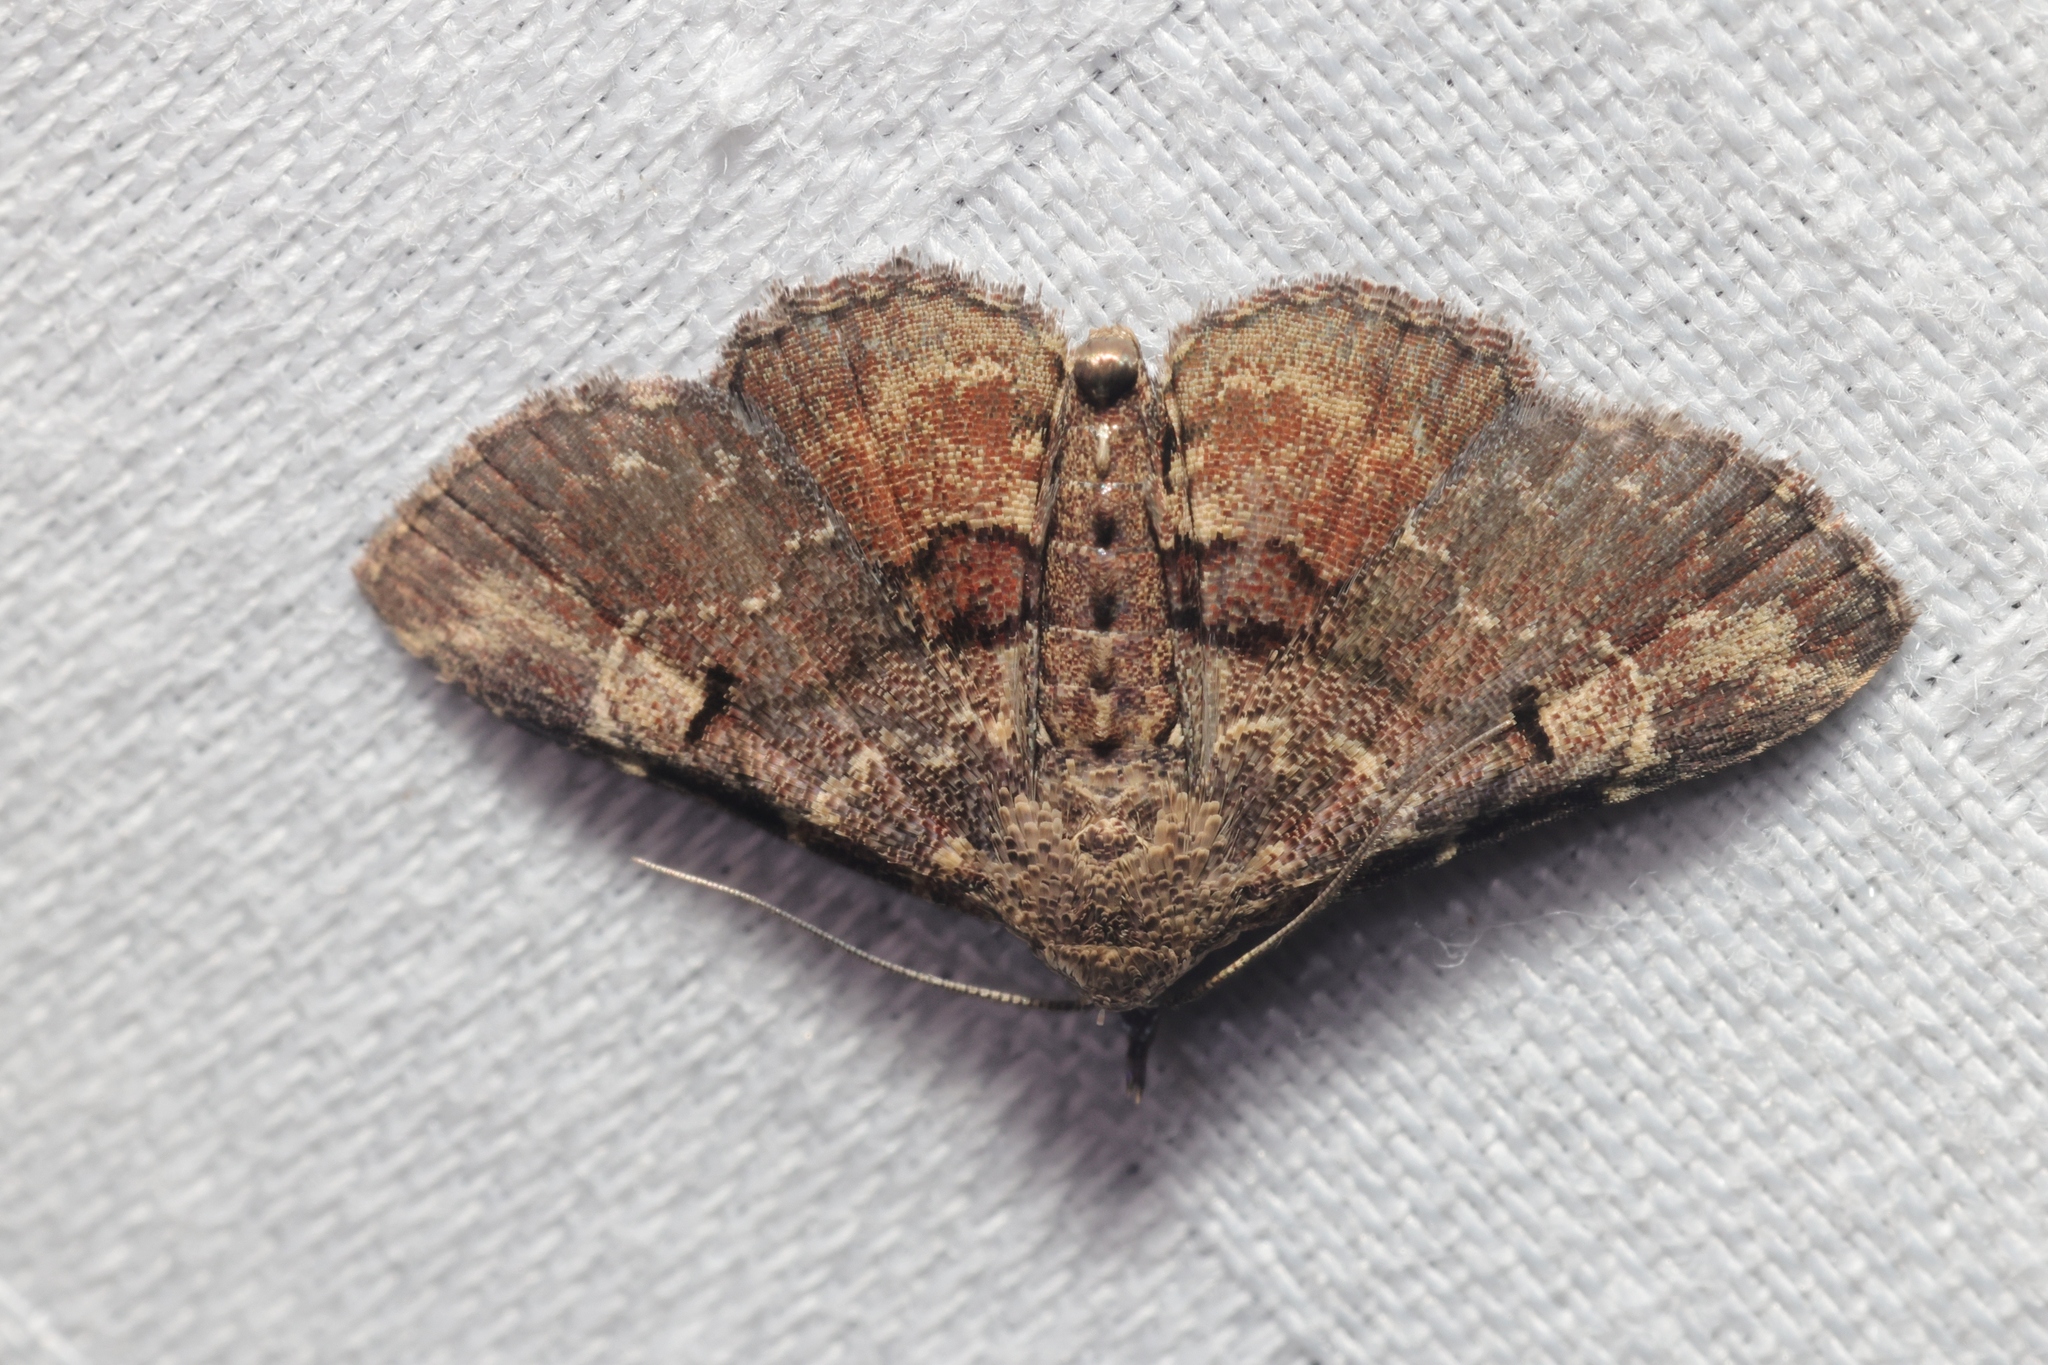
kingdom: Animalia
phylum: Arthropoda
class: Insecta
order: Lepidoptera
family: Erebidae
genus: Maguda
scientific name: Maguda suffusa
